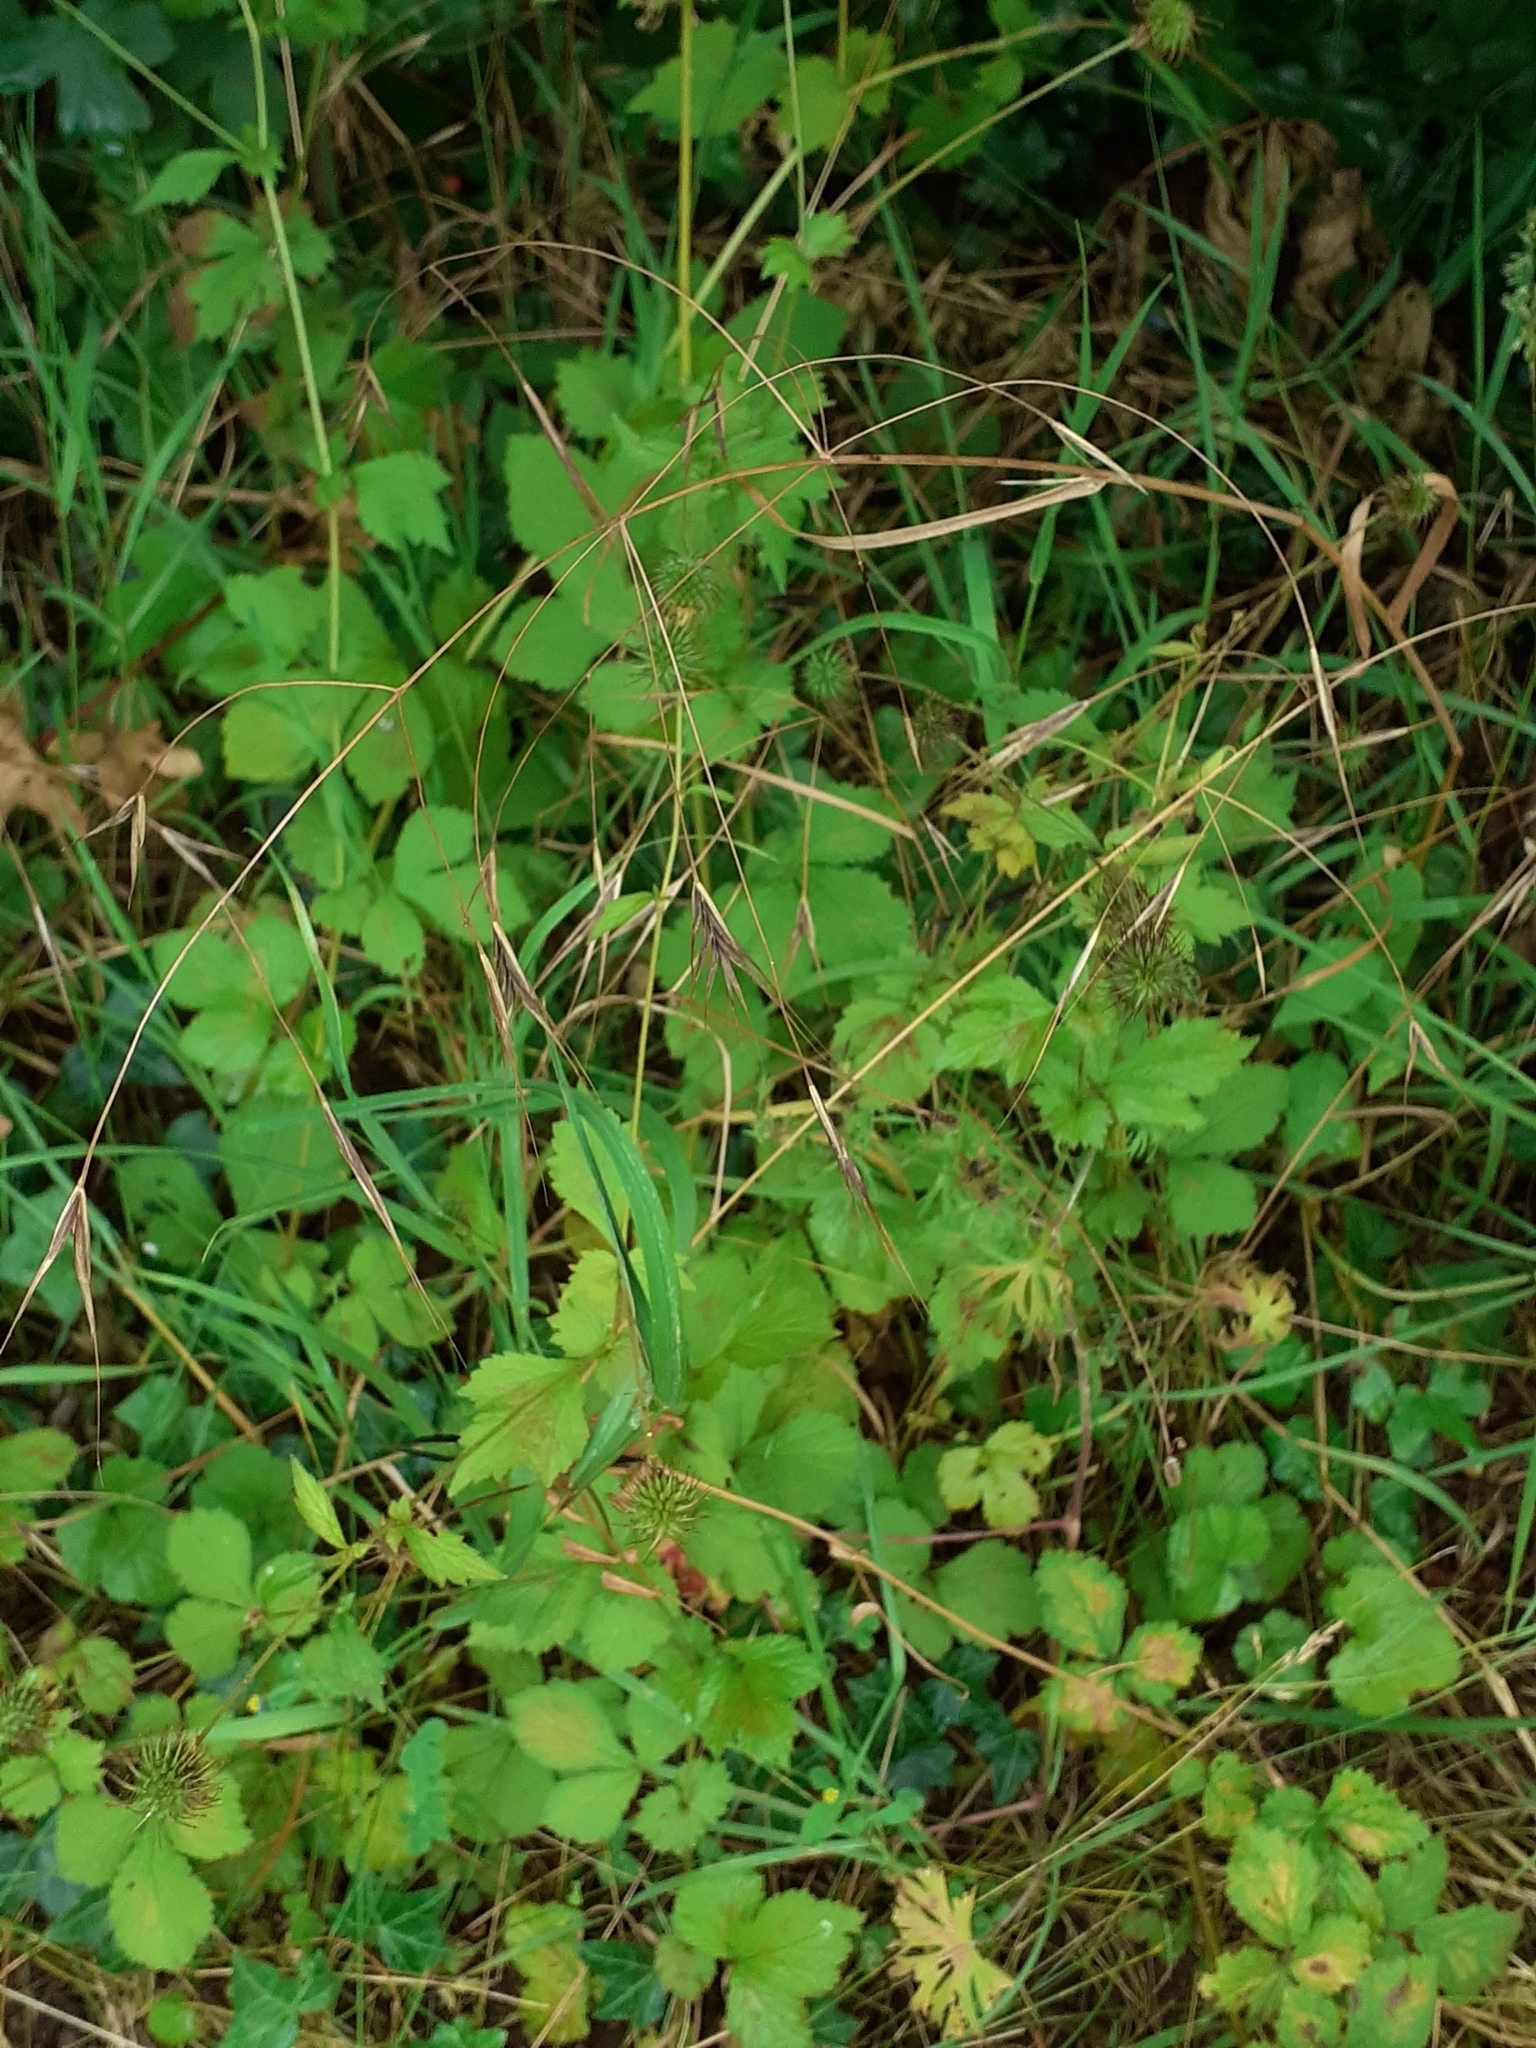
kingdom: Plantae
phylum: Tracheophyta
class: Magnoliopsida
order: Rosales
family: Rosaceae
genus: Geum
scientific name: Geum urbanum
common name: Wood avens
